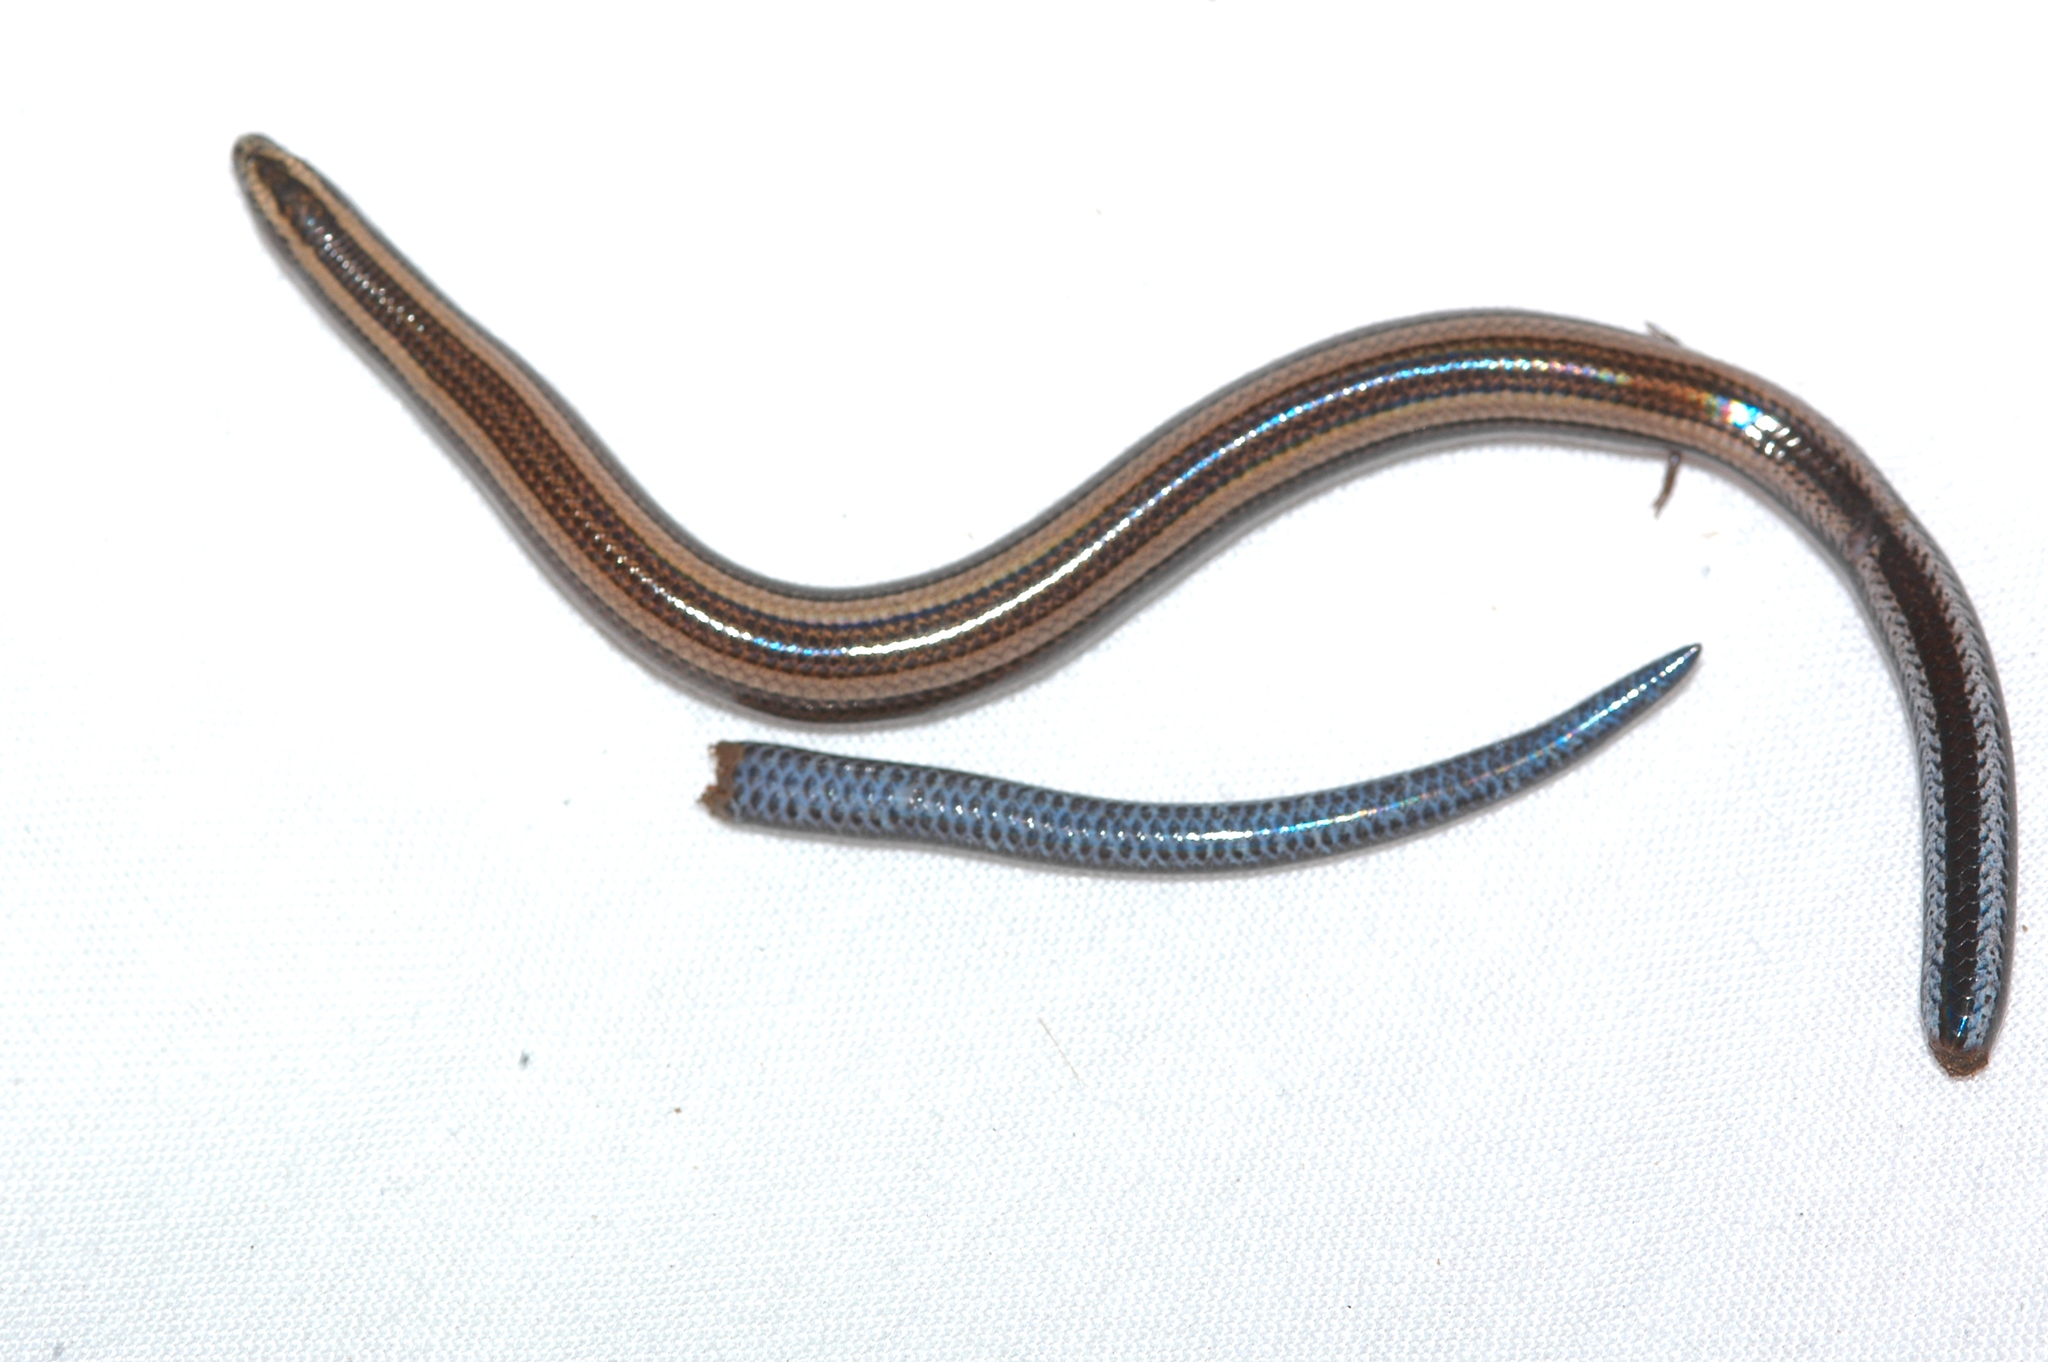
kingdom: Animalia
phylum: Chordata
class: Squamata
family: Scincidae
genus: Scelotes
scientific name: Scelotes bidigittatus
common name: Lowveld dwarf burrowing skink
